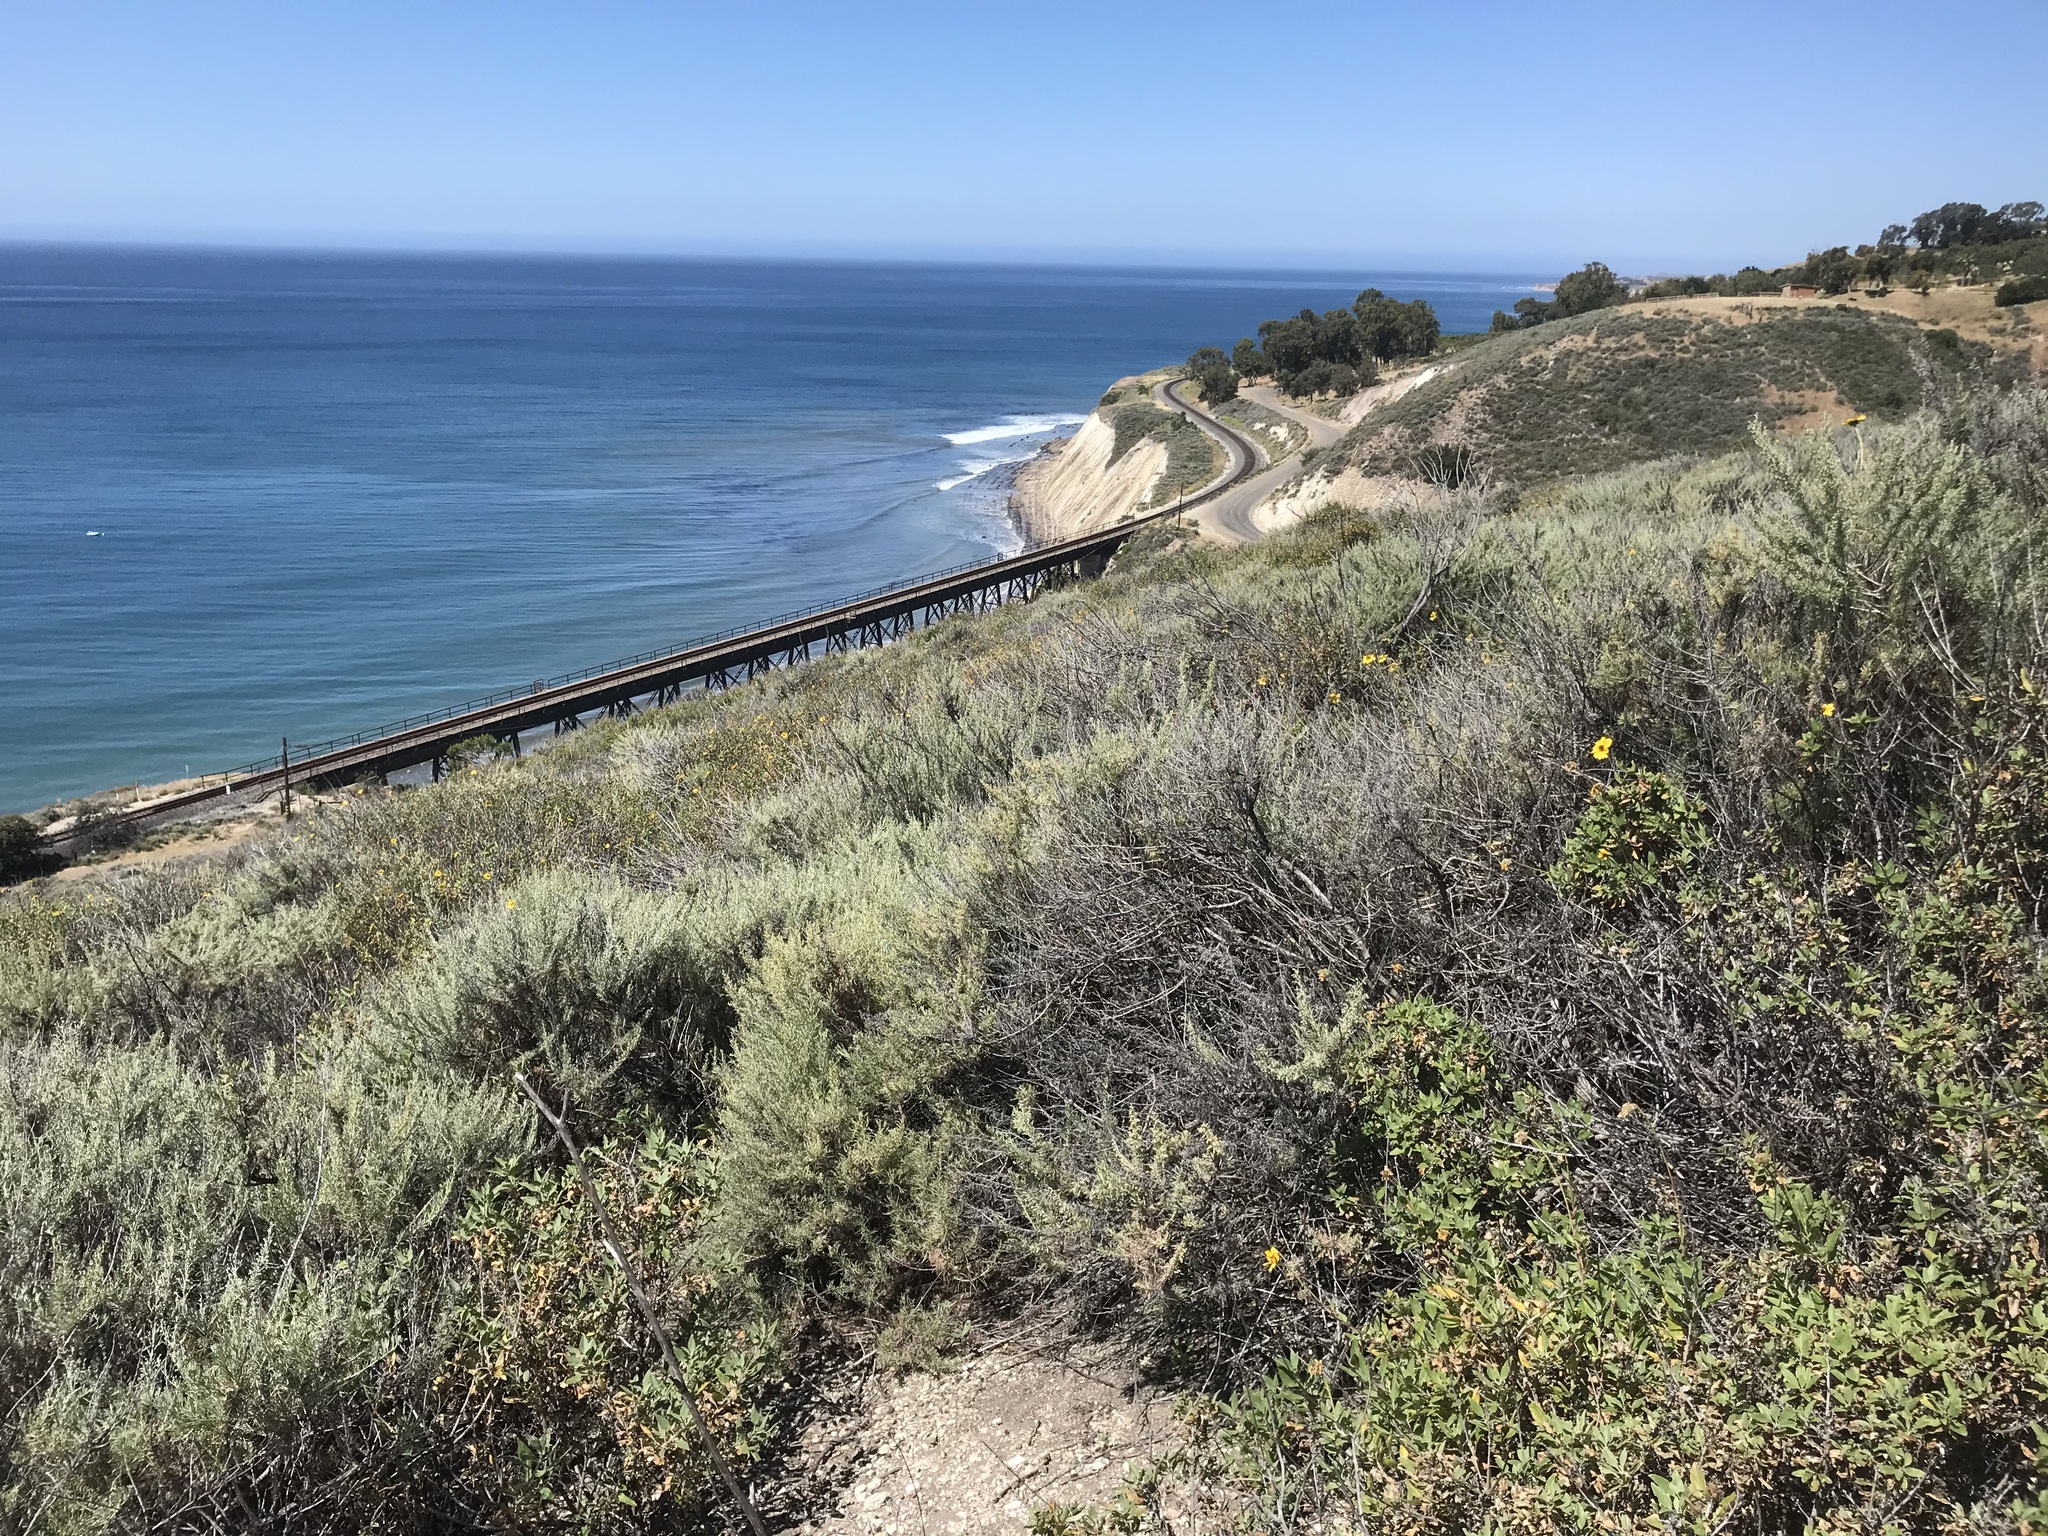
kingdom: Plantae
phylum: Tracheophyta
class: Magnoliopsida
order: Asterales
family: Asteraceae
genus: Artemisia
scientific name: Artemisia californica
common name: California sagebrush
